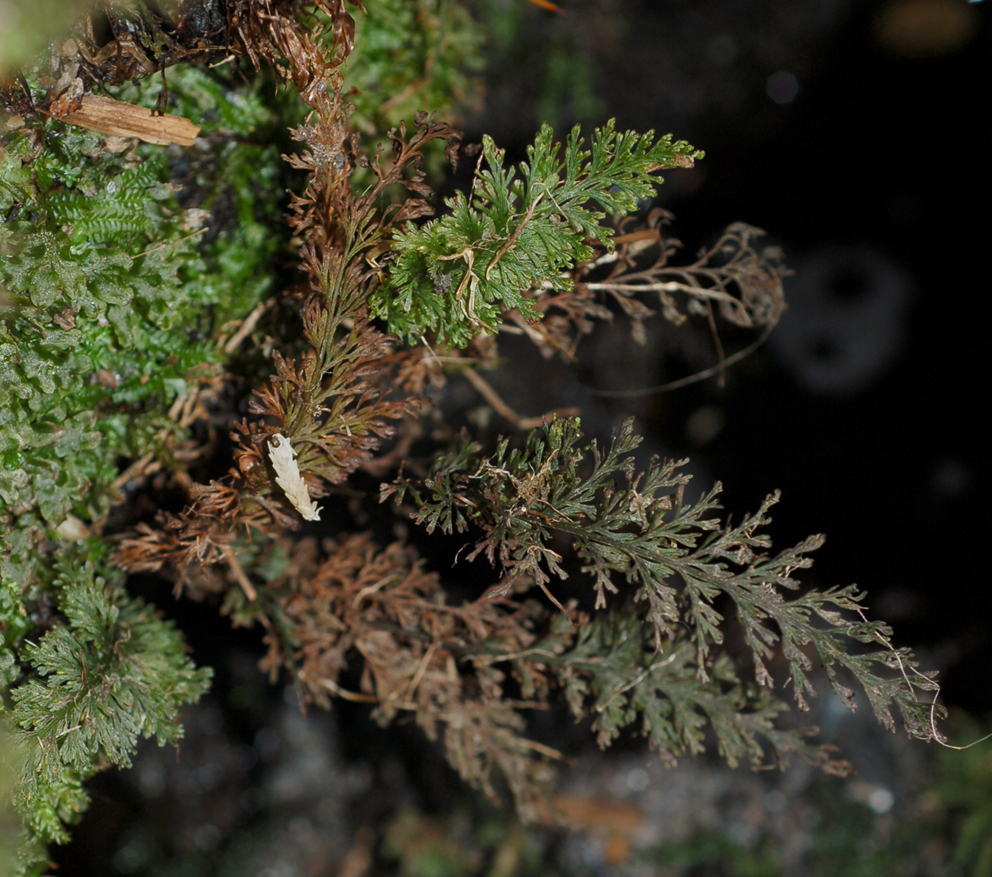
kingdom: Plantae
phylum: Tracheophyta
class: Polypodiopsida
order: Hymenophyllales
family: Hymenophyllaceae
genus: Abrodictyum
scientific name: Abrodictyum strictum
